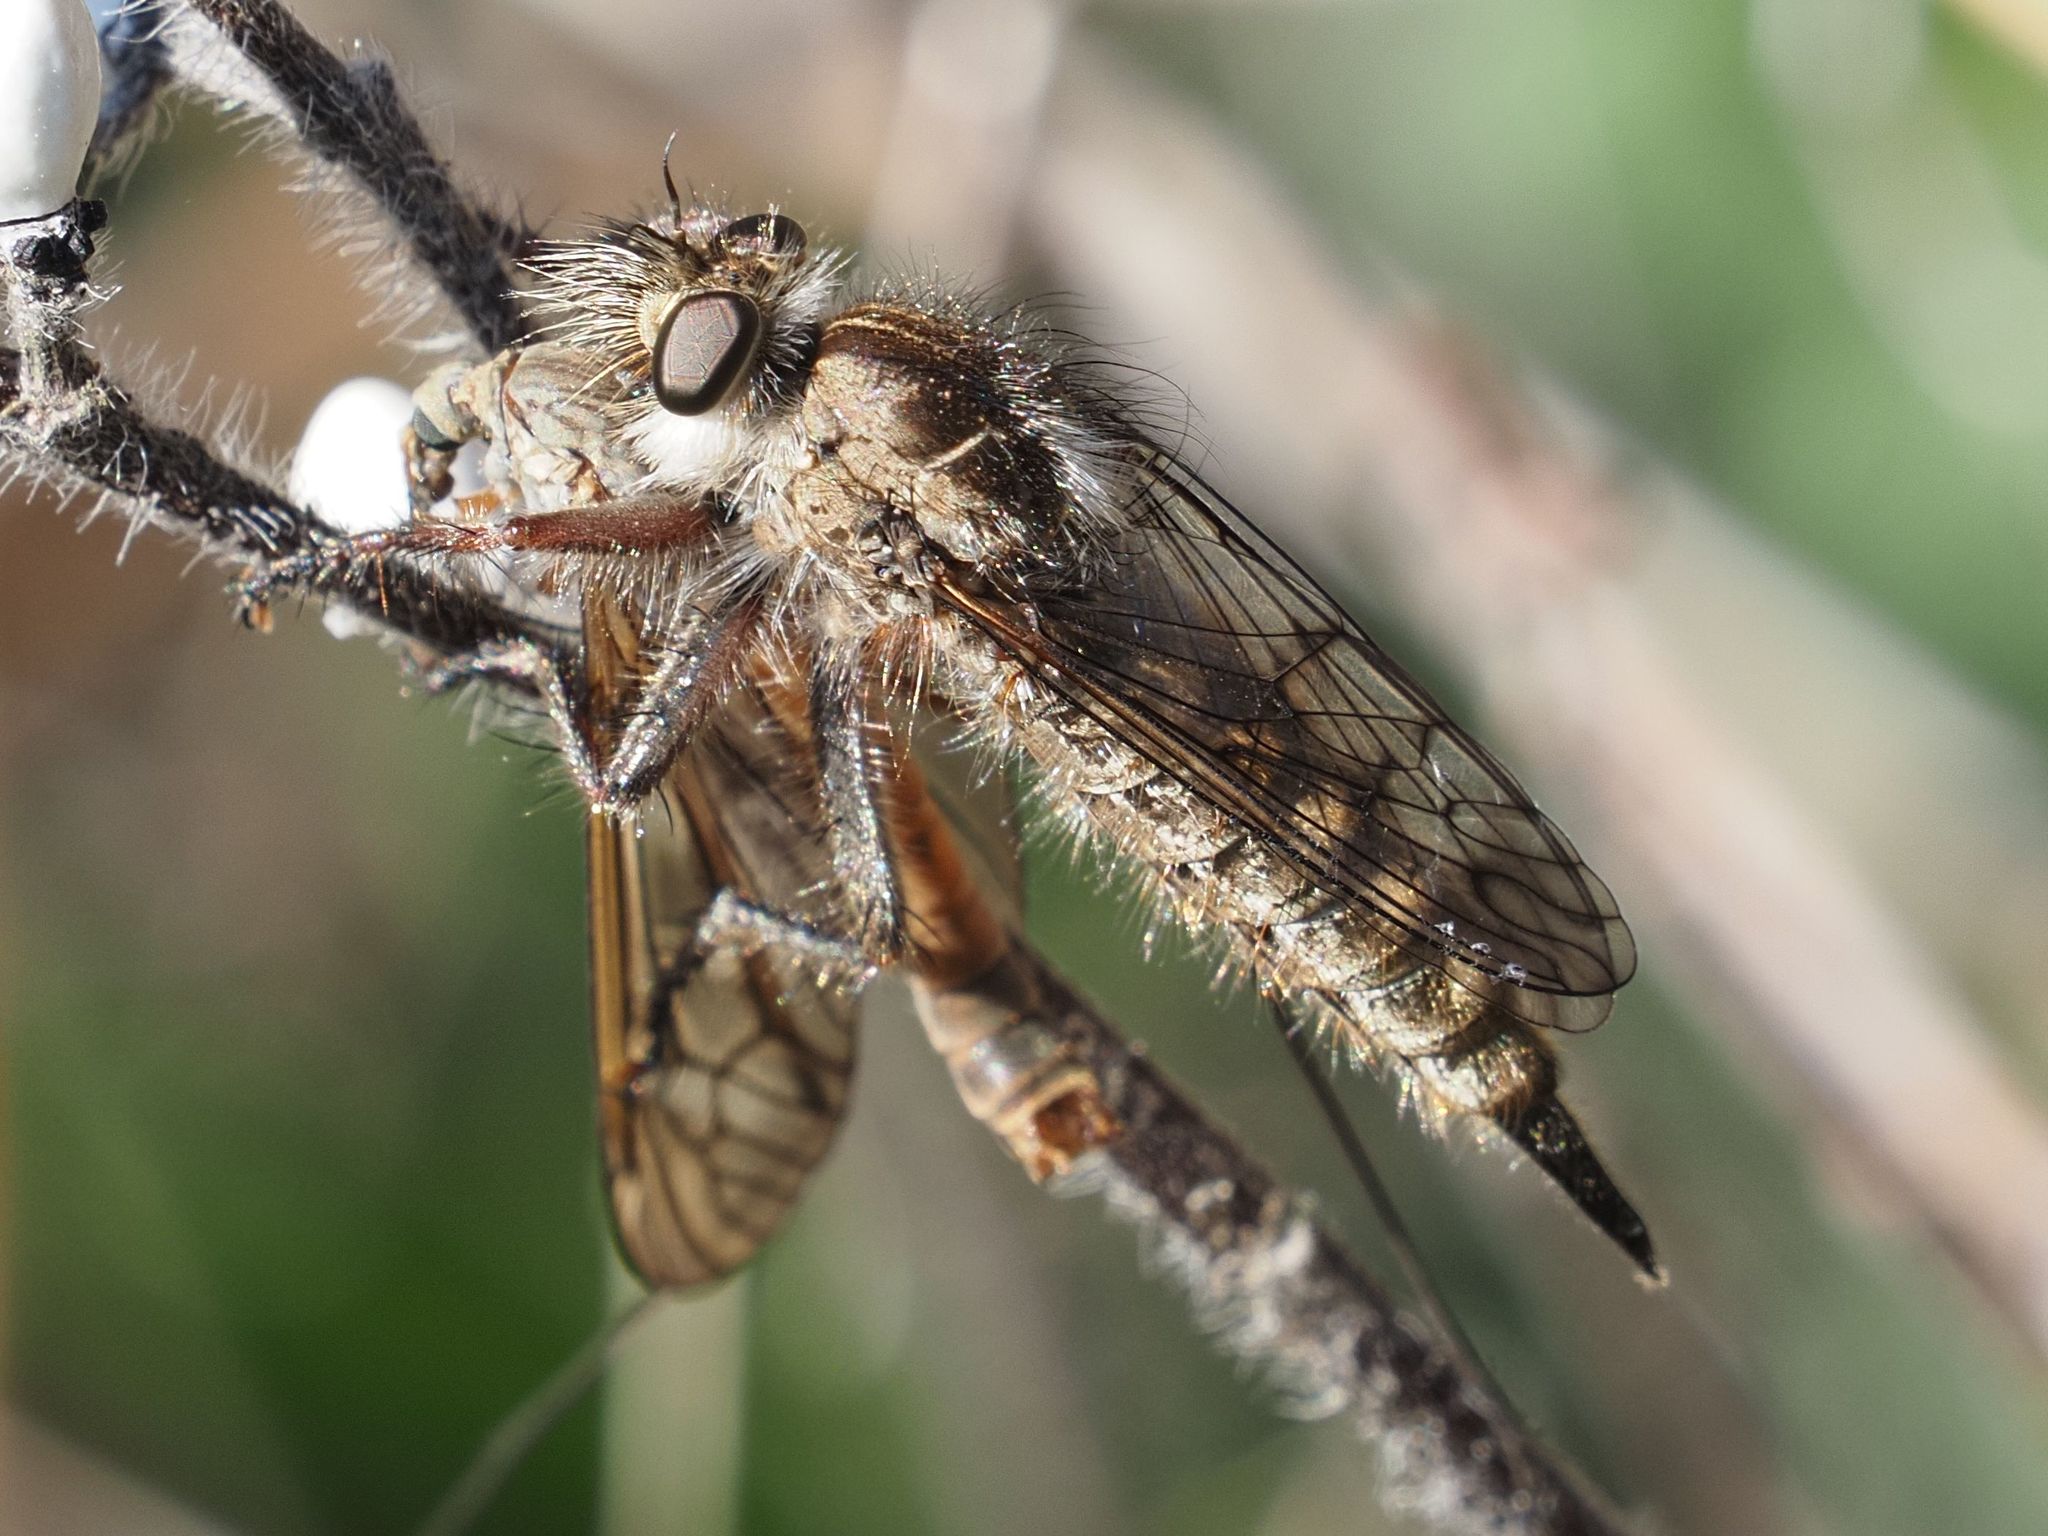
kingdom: Animalia
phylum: Arthropoda
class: Insecta
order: Diptera
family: Asilidae
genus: Erax
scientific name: Erax barbatus
